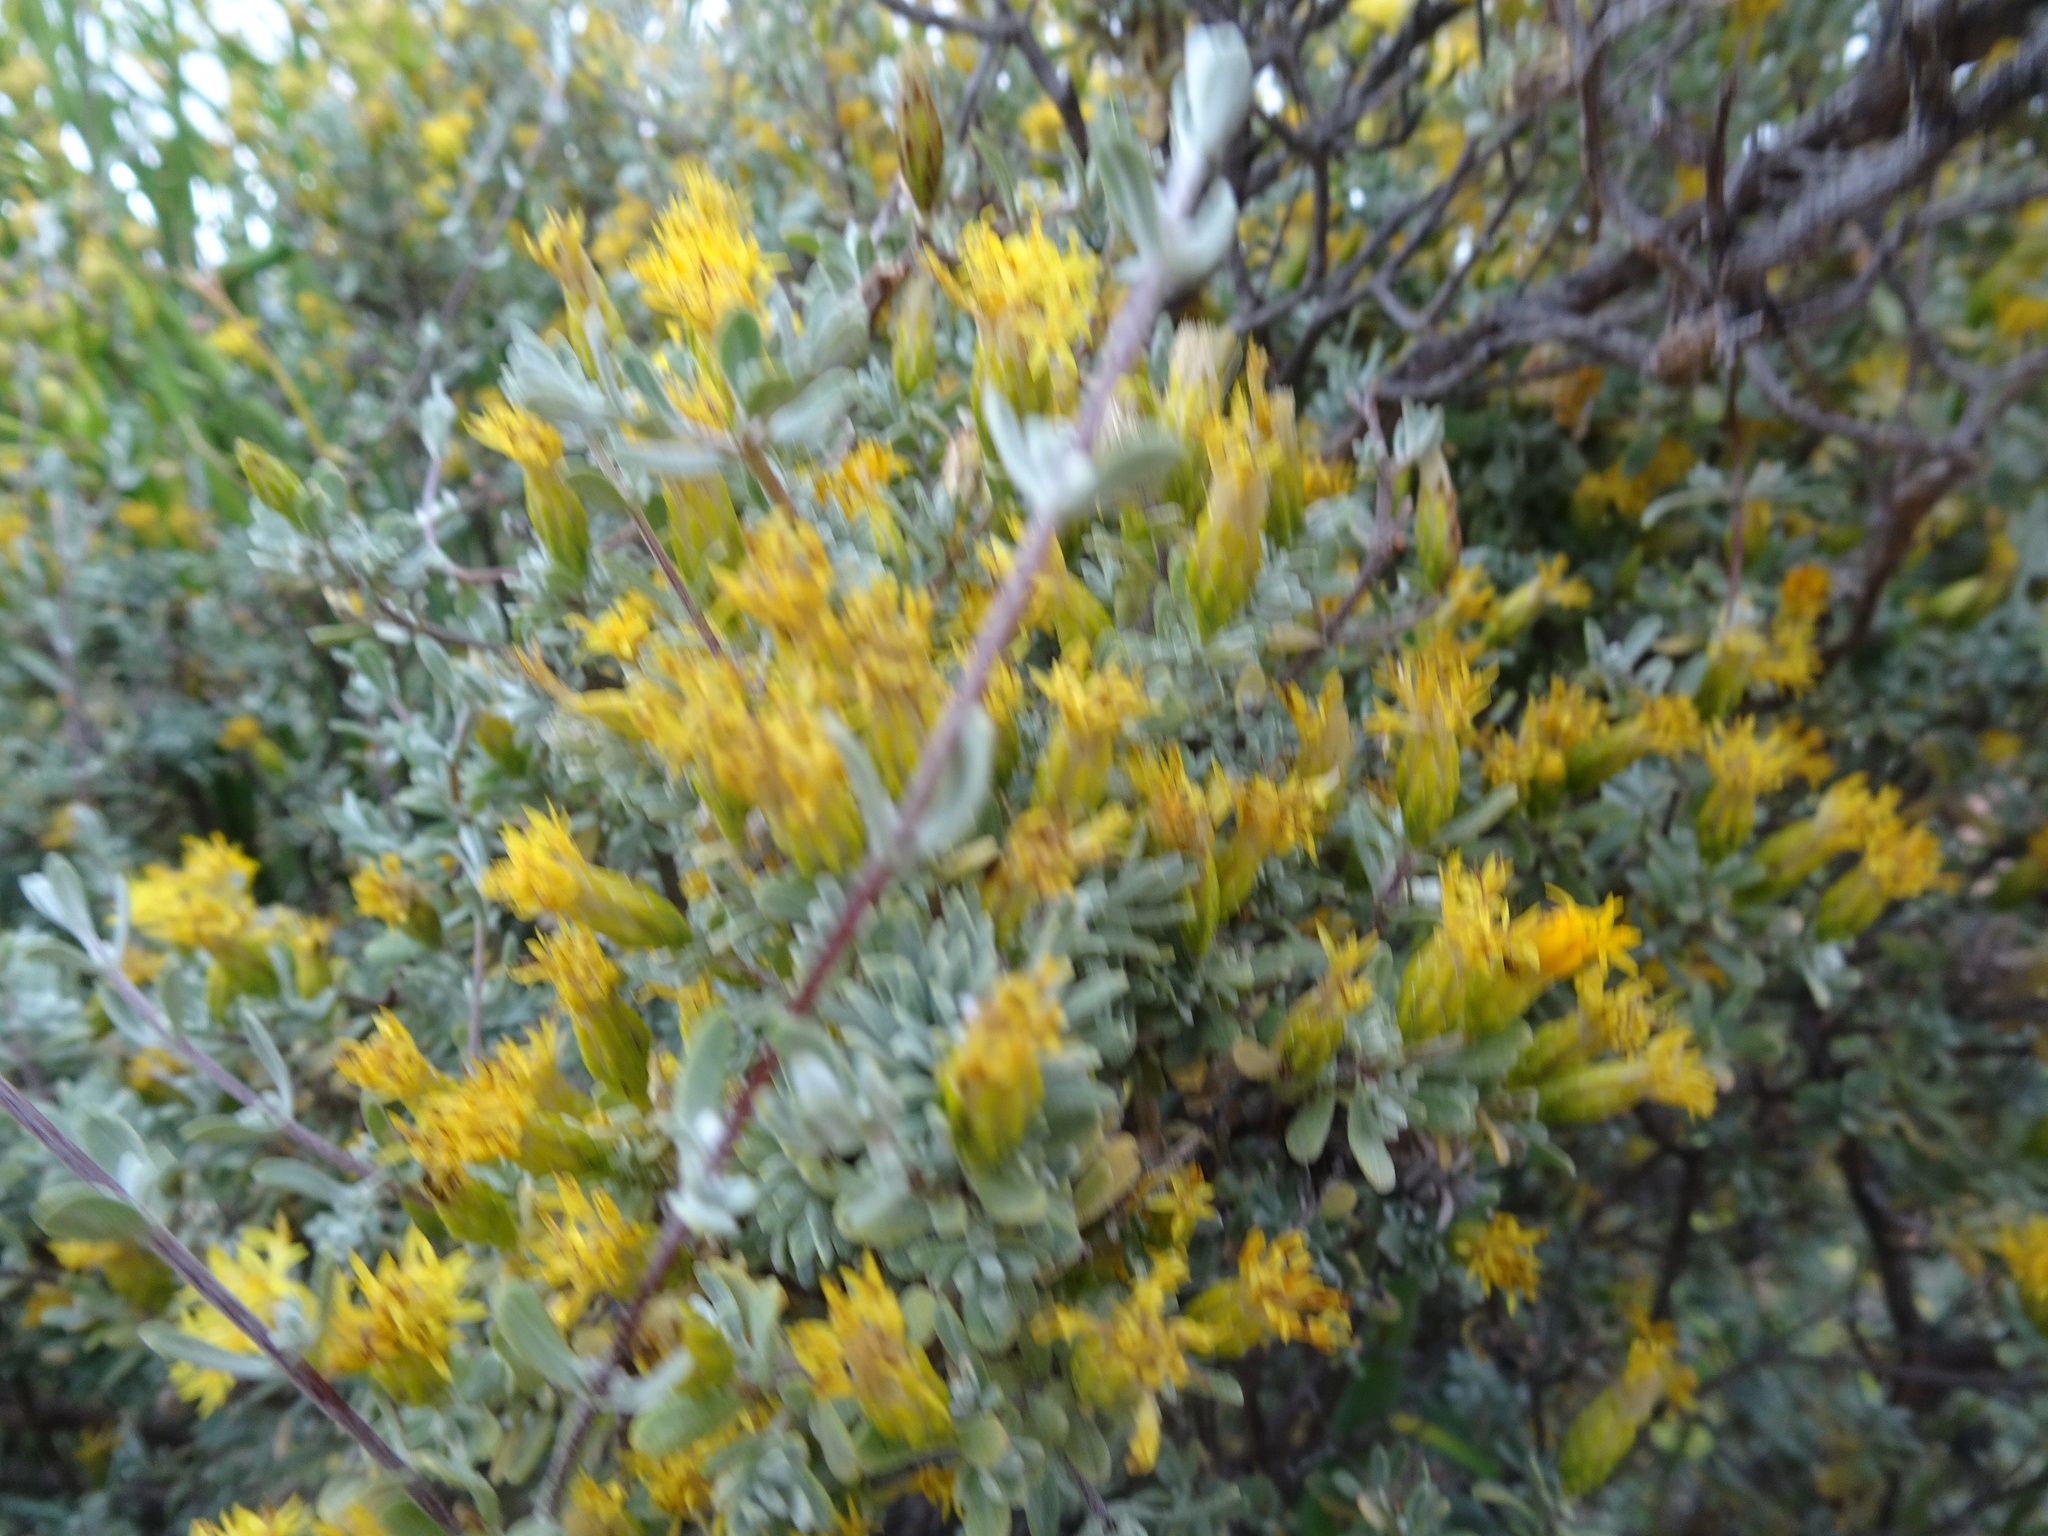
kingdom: Plantae
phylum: Tracheophyta
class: Magnoliopsida
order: Asterales
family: Asteraceae
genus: Pteronia
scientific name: Pteronia incana
